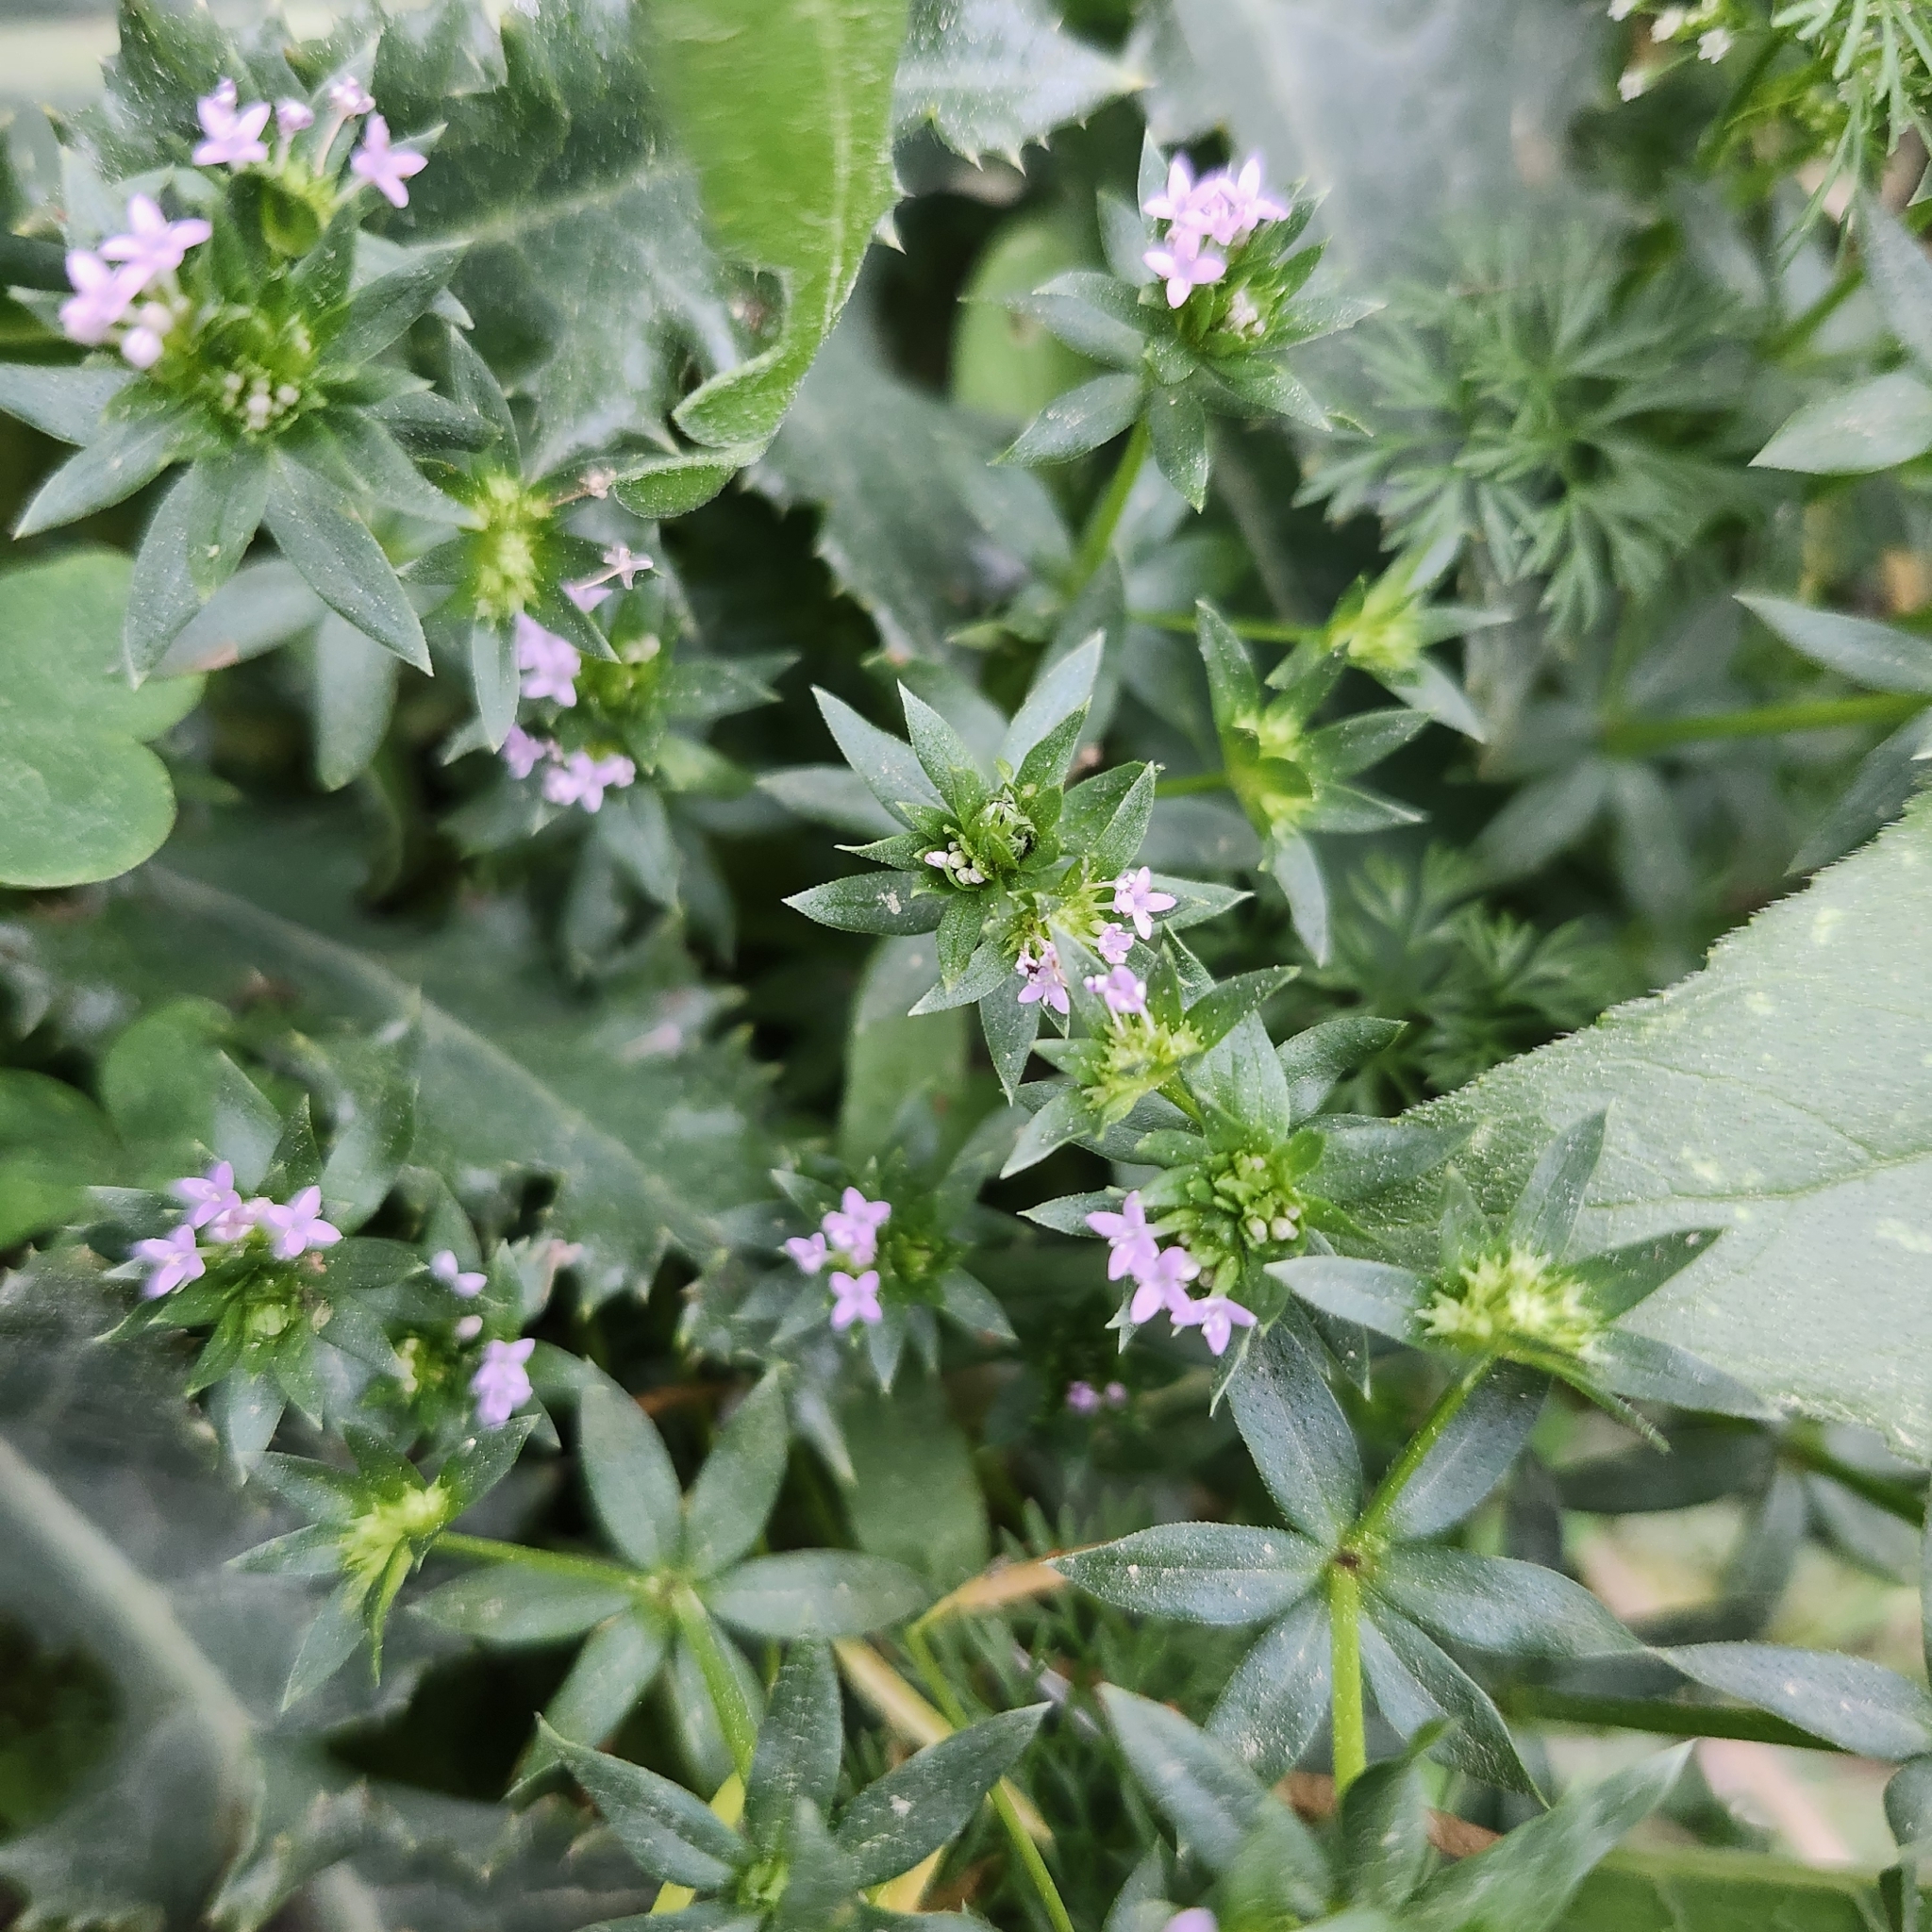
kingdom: Plantae
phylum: Tracheophyta
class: Magnoliopsida
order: Gentianales
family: Rubiaceae
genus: Sherardia
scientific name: Sherardia arvensis
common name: Field madder
